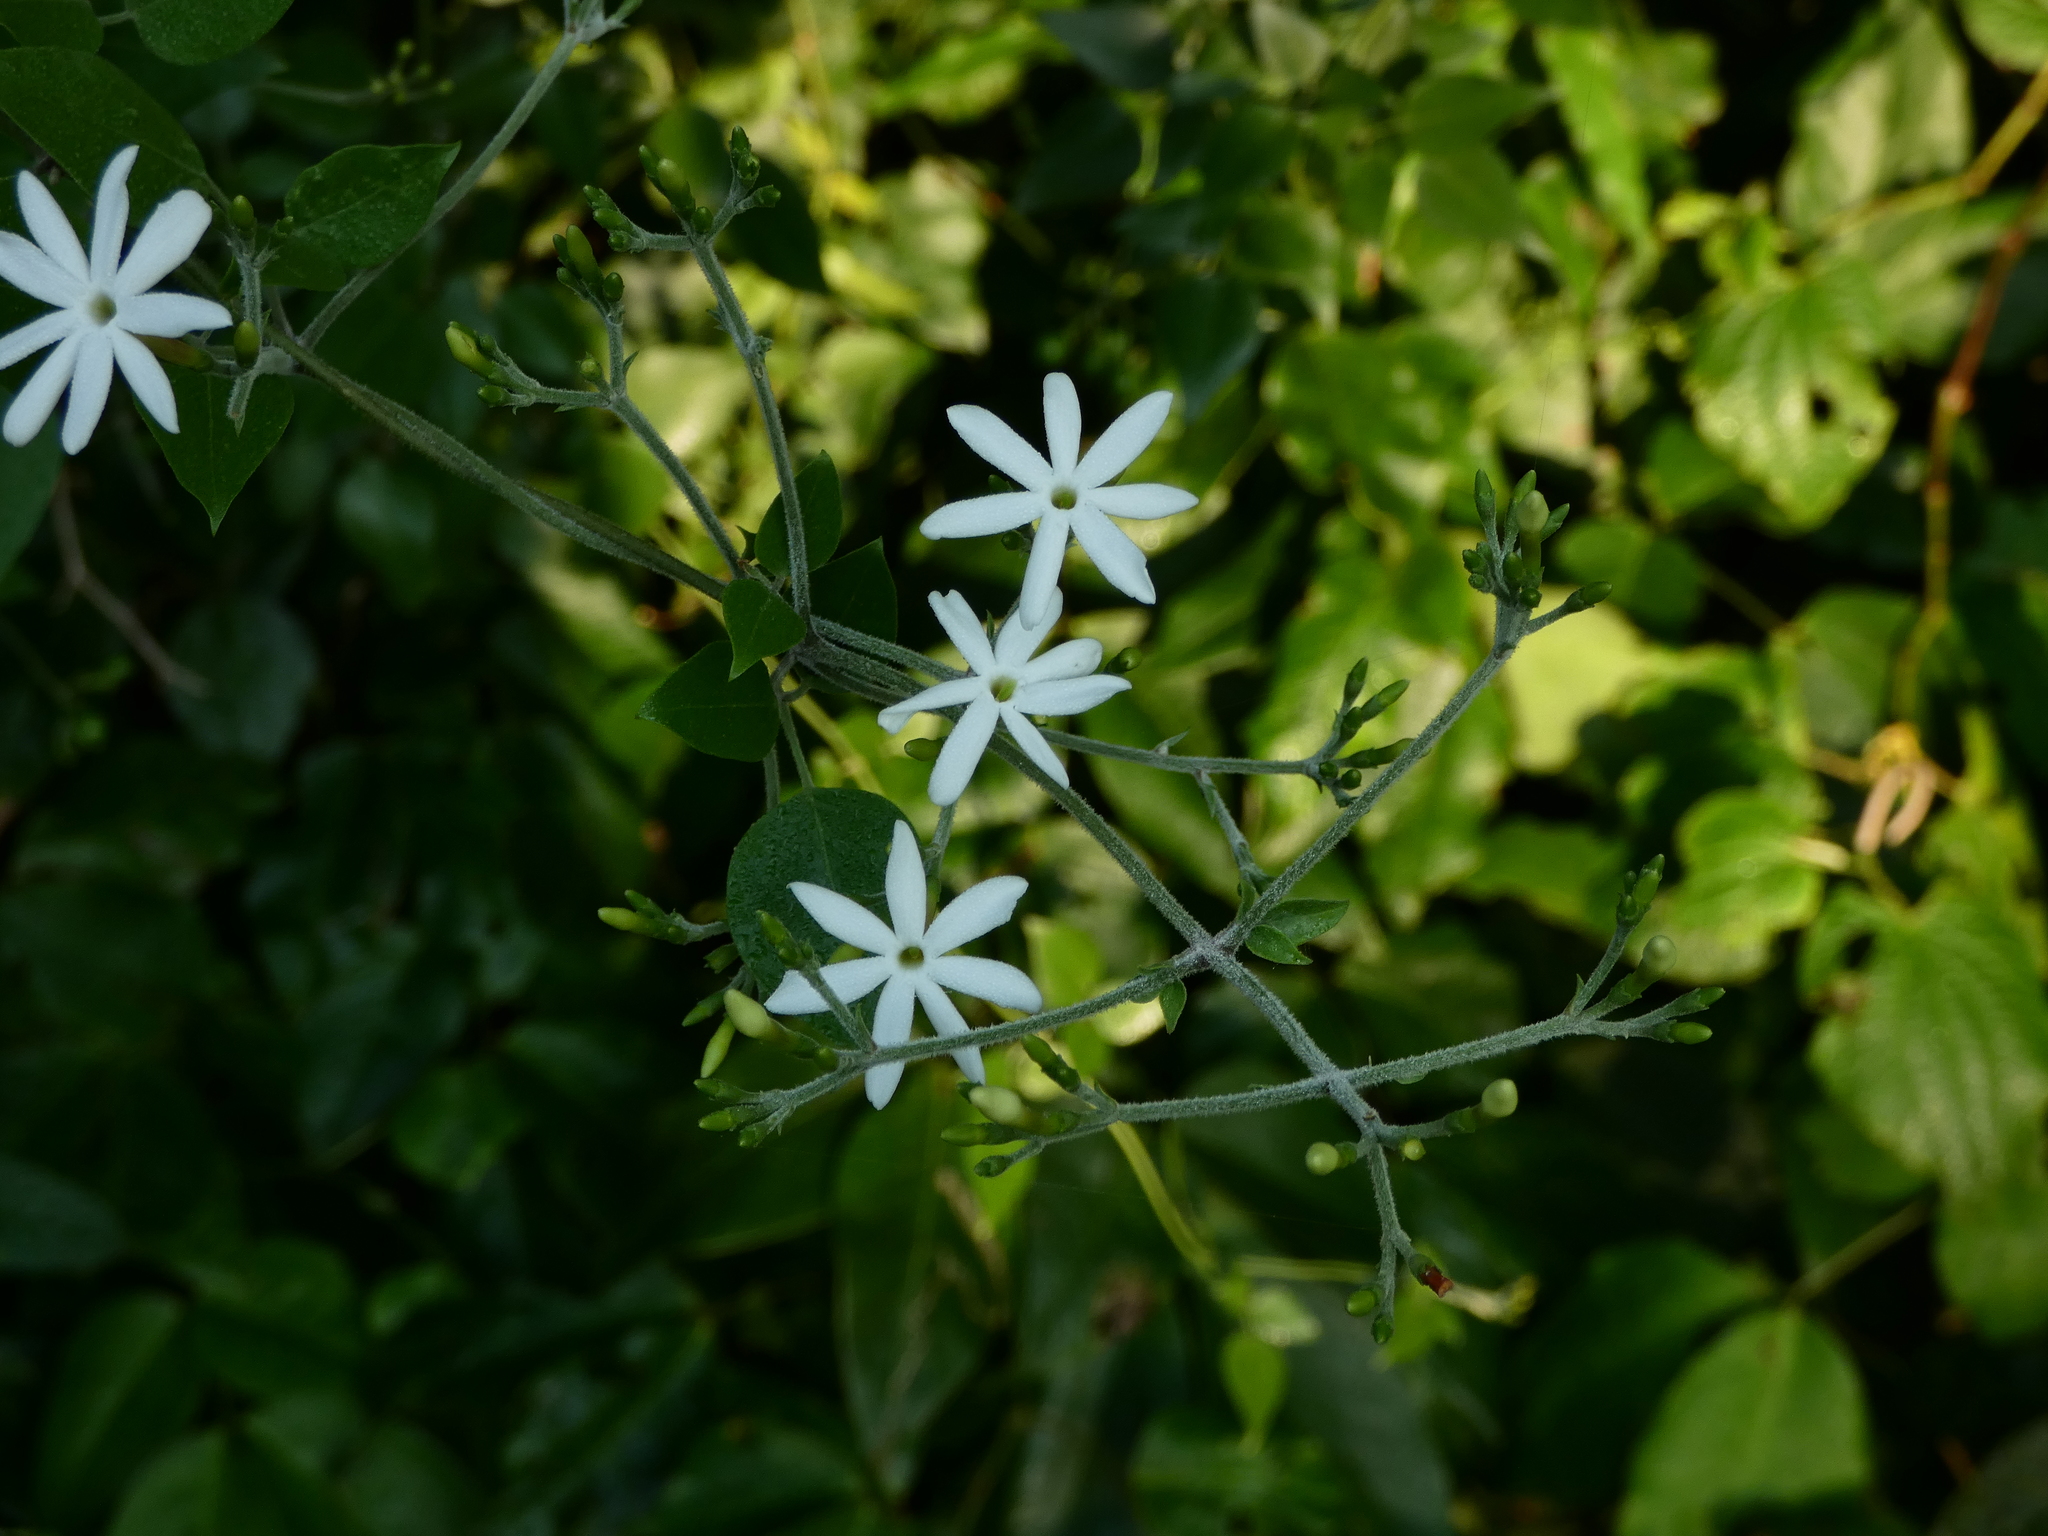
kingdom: Plantae
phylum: Tracheophyta
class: Magnoliopsida
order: Lamiales
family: Oleaceae
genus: Jasminum
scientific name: Jasminum fluminense
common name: Brazilian jasmine
